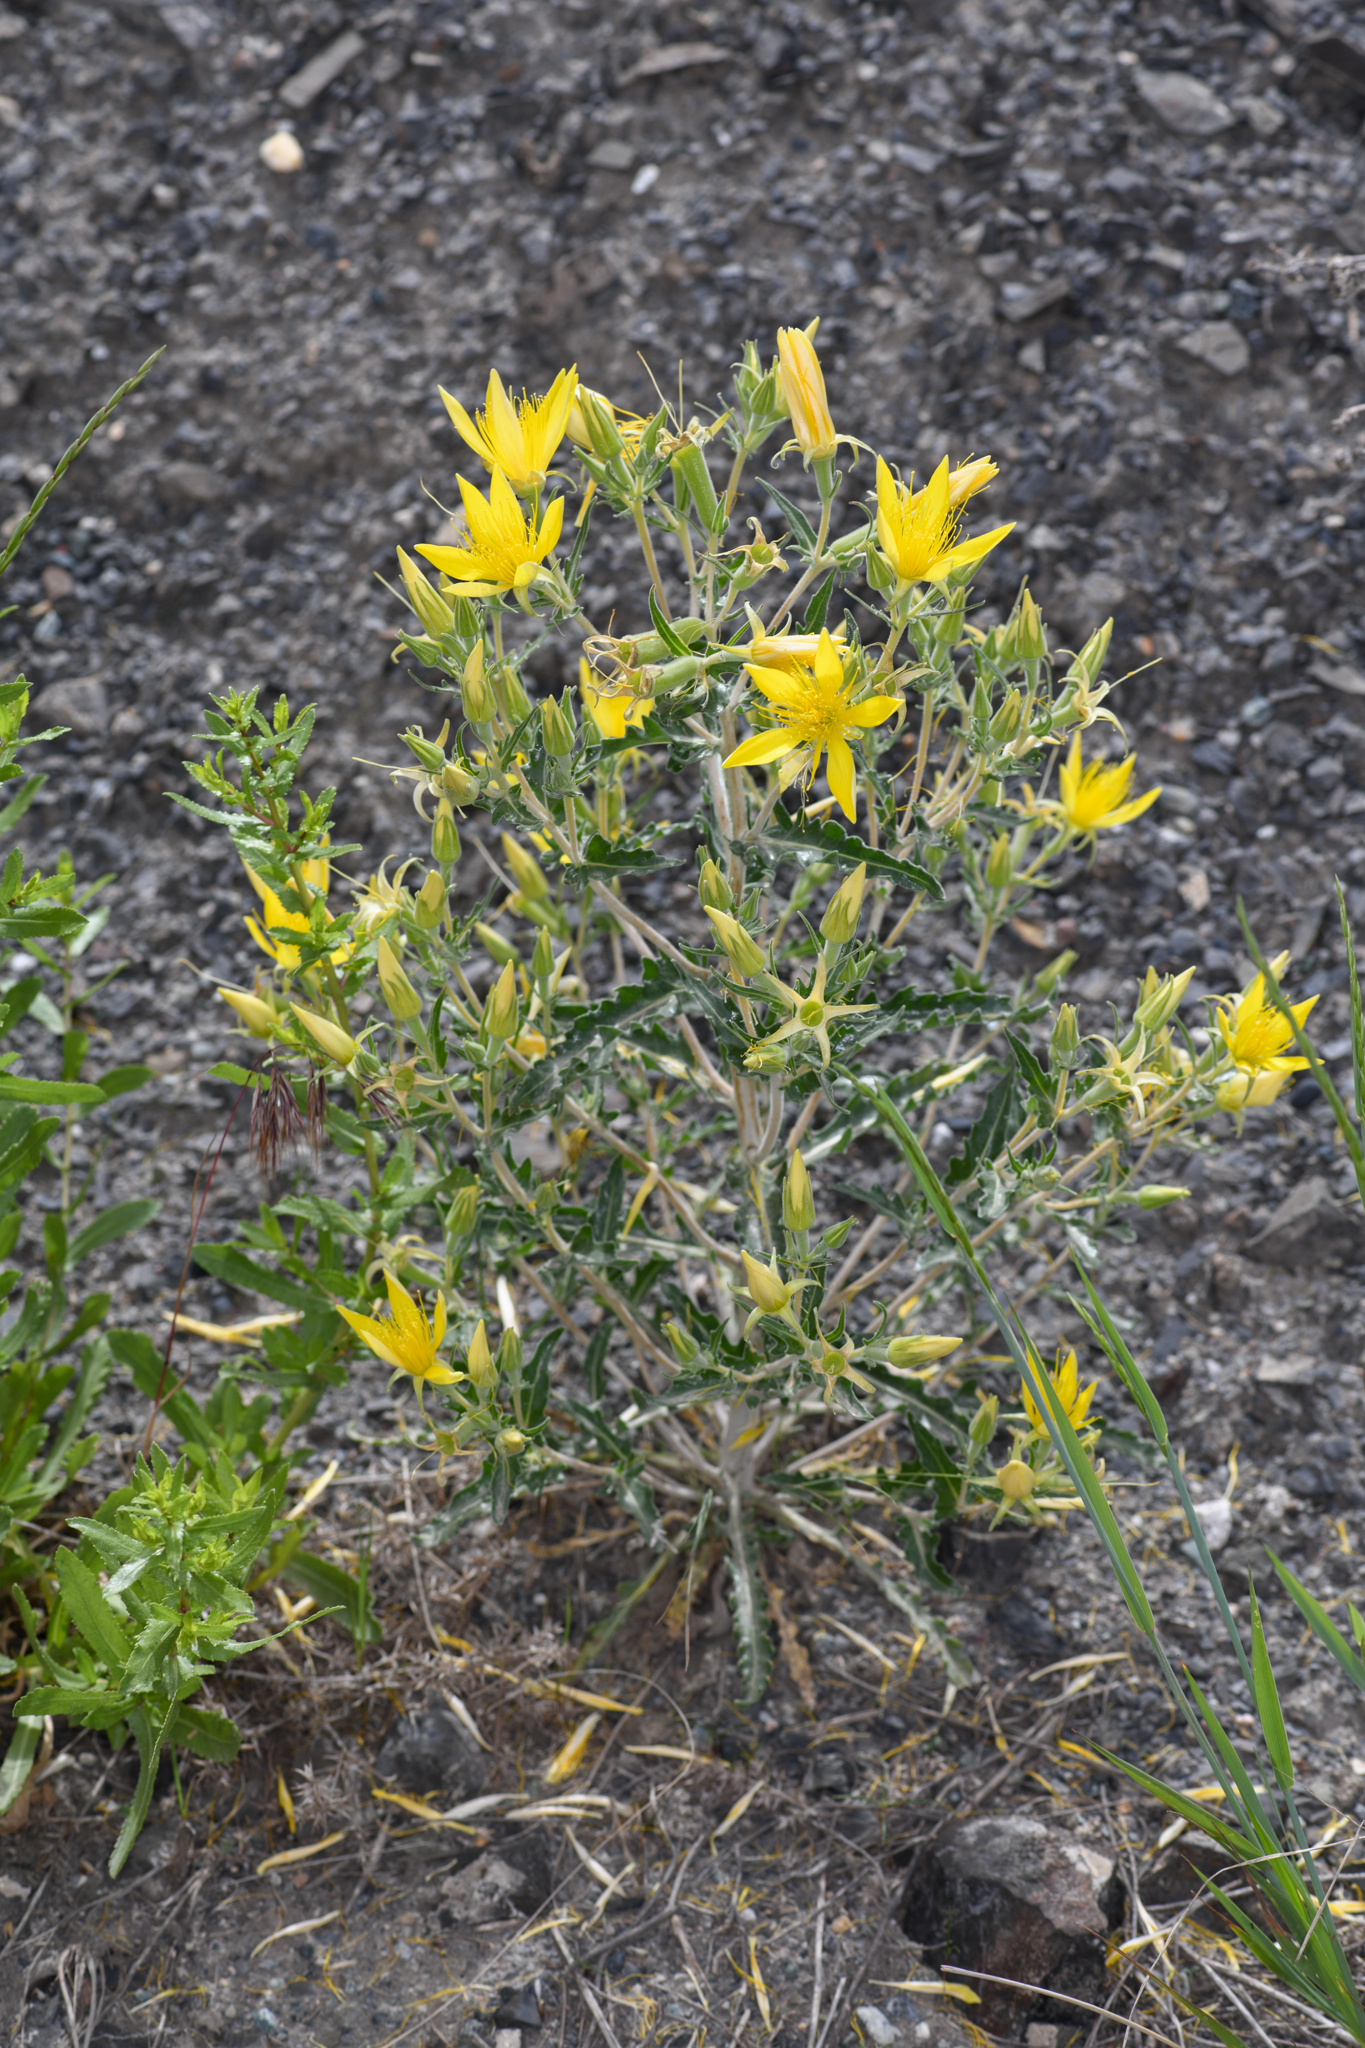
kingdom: Plantae
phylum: Tracheophyta
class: Magnoliopsida
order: Cornales
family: Loasaceae
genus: Mentzelia
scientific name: Mentzelia laevicaulis
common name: Smooth-stem blazingstar
